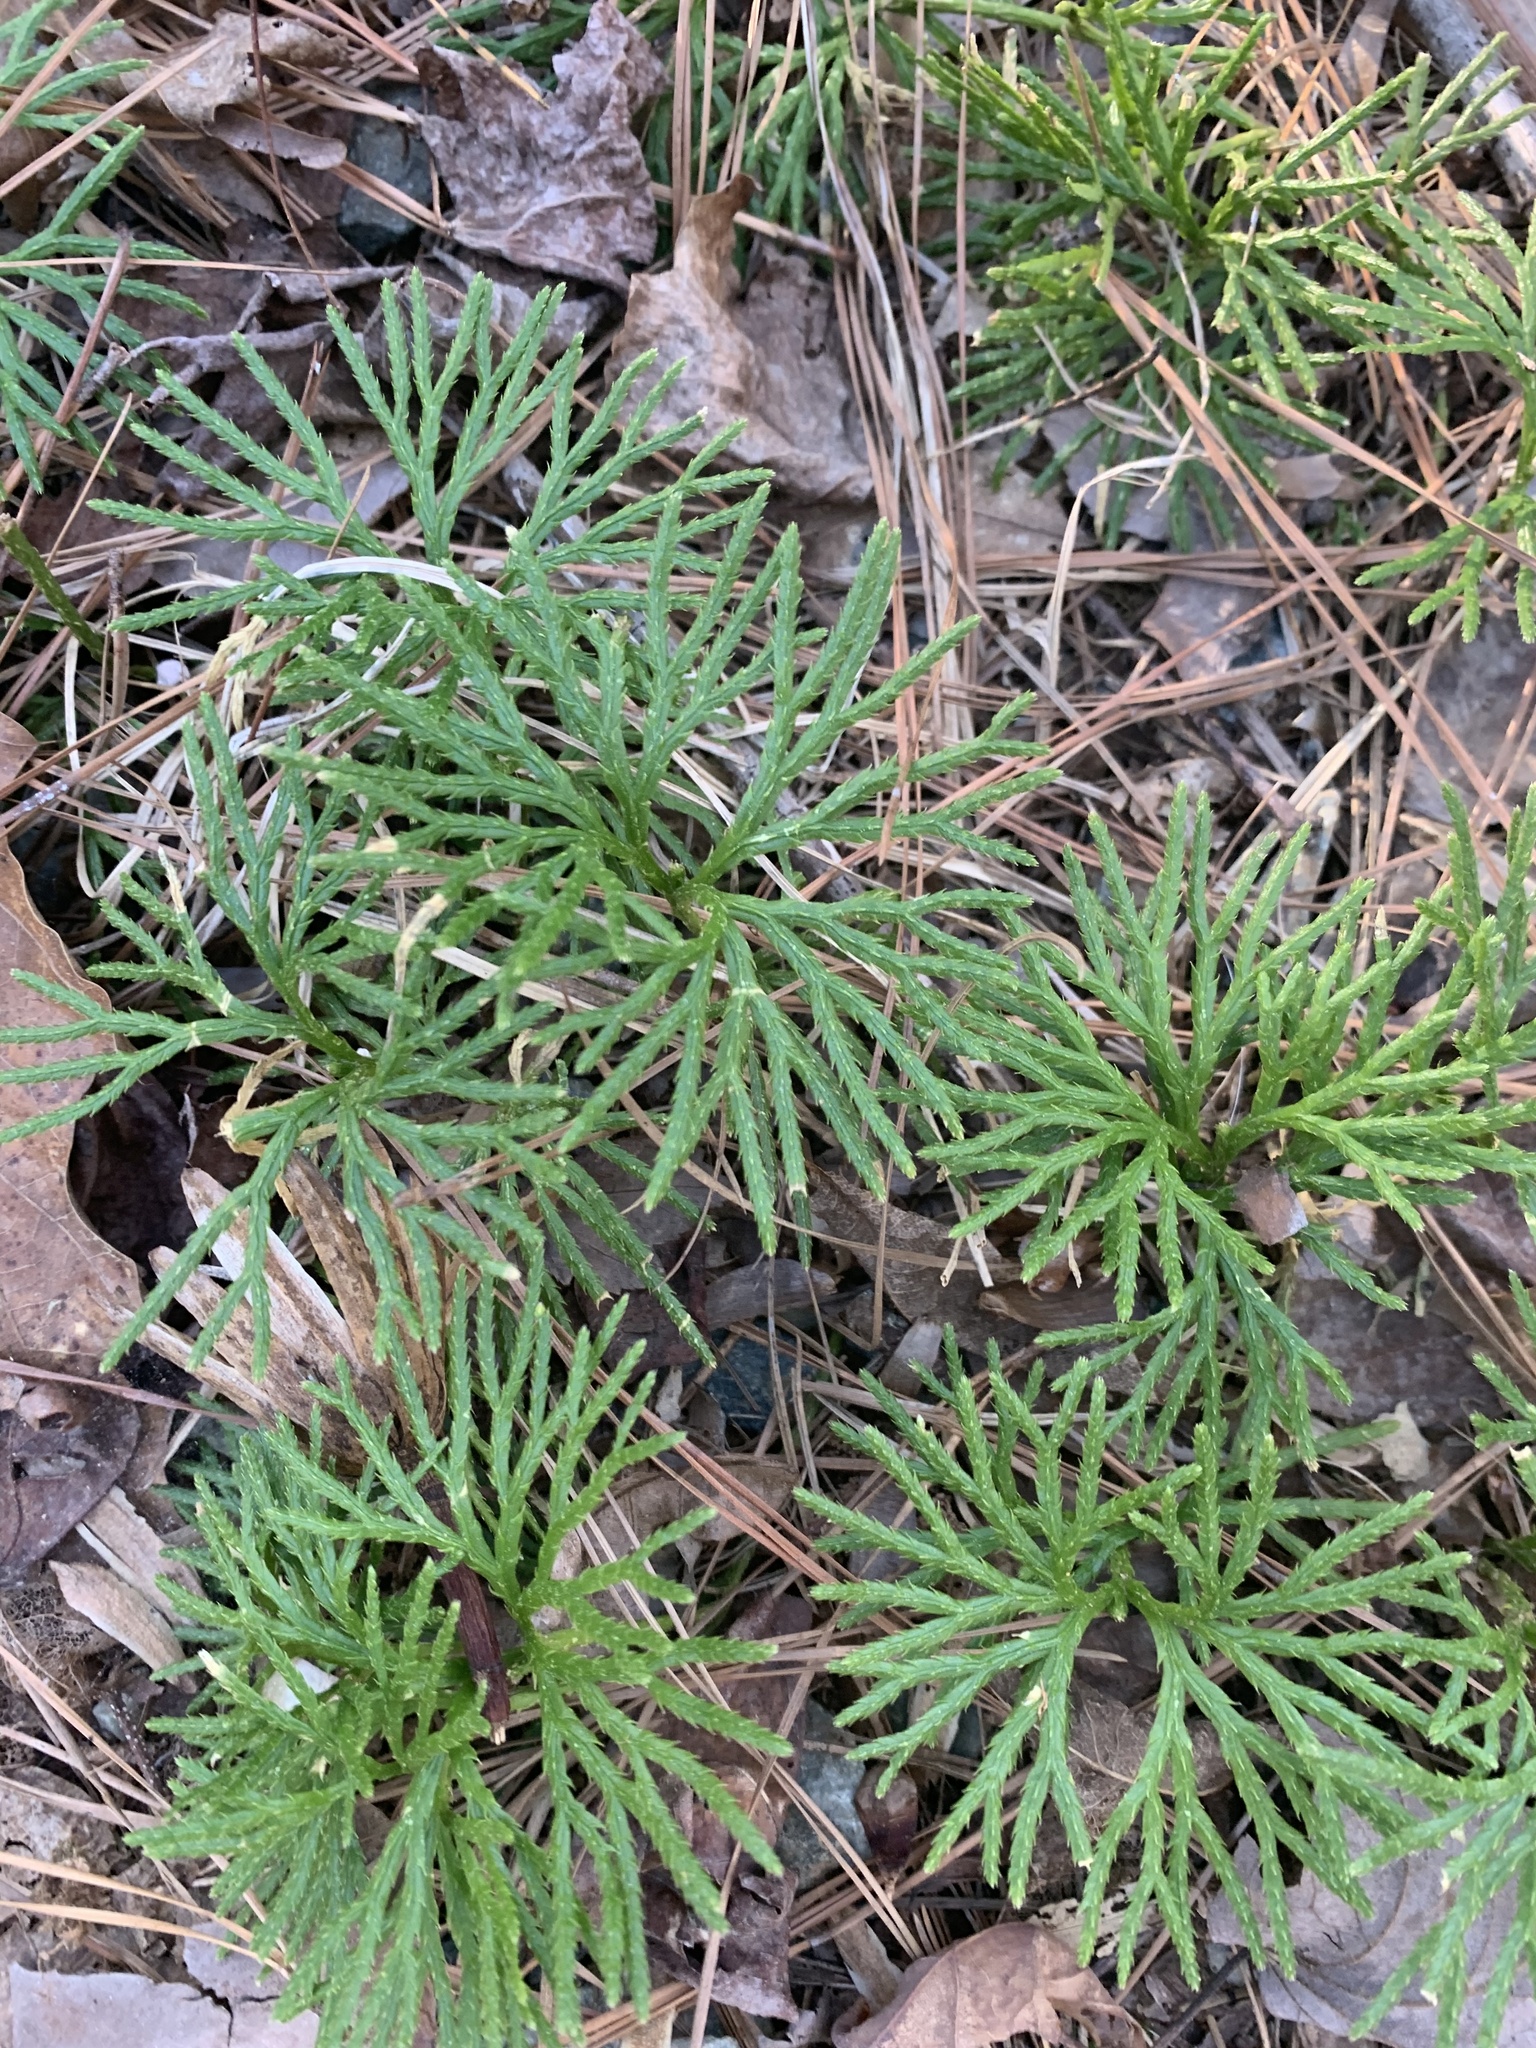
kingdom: Plantae
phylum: Tracheophyta
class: Lycopodiopsida
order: Lycopodiales
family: Lycopodiaceae
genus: Diphasiastrum
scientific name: Diphasiastrum digitatum
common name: Southern running-pine
